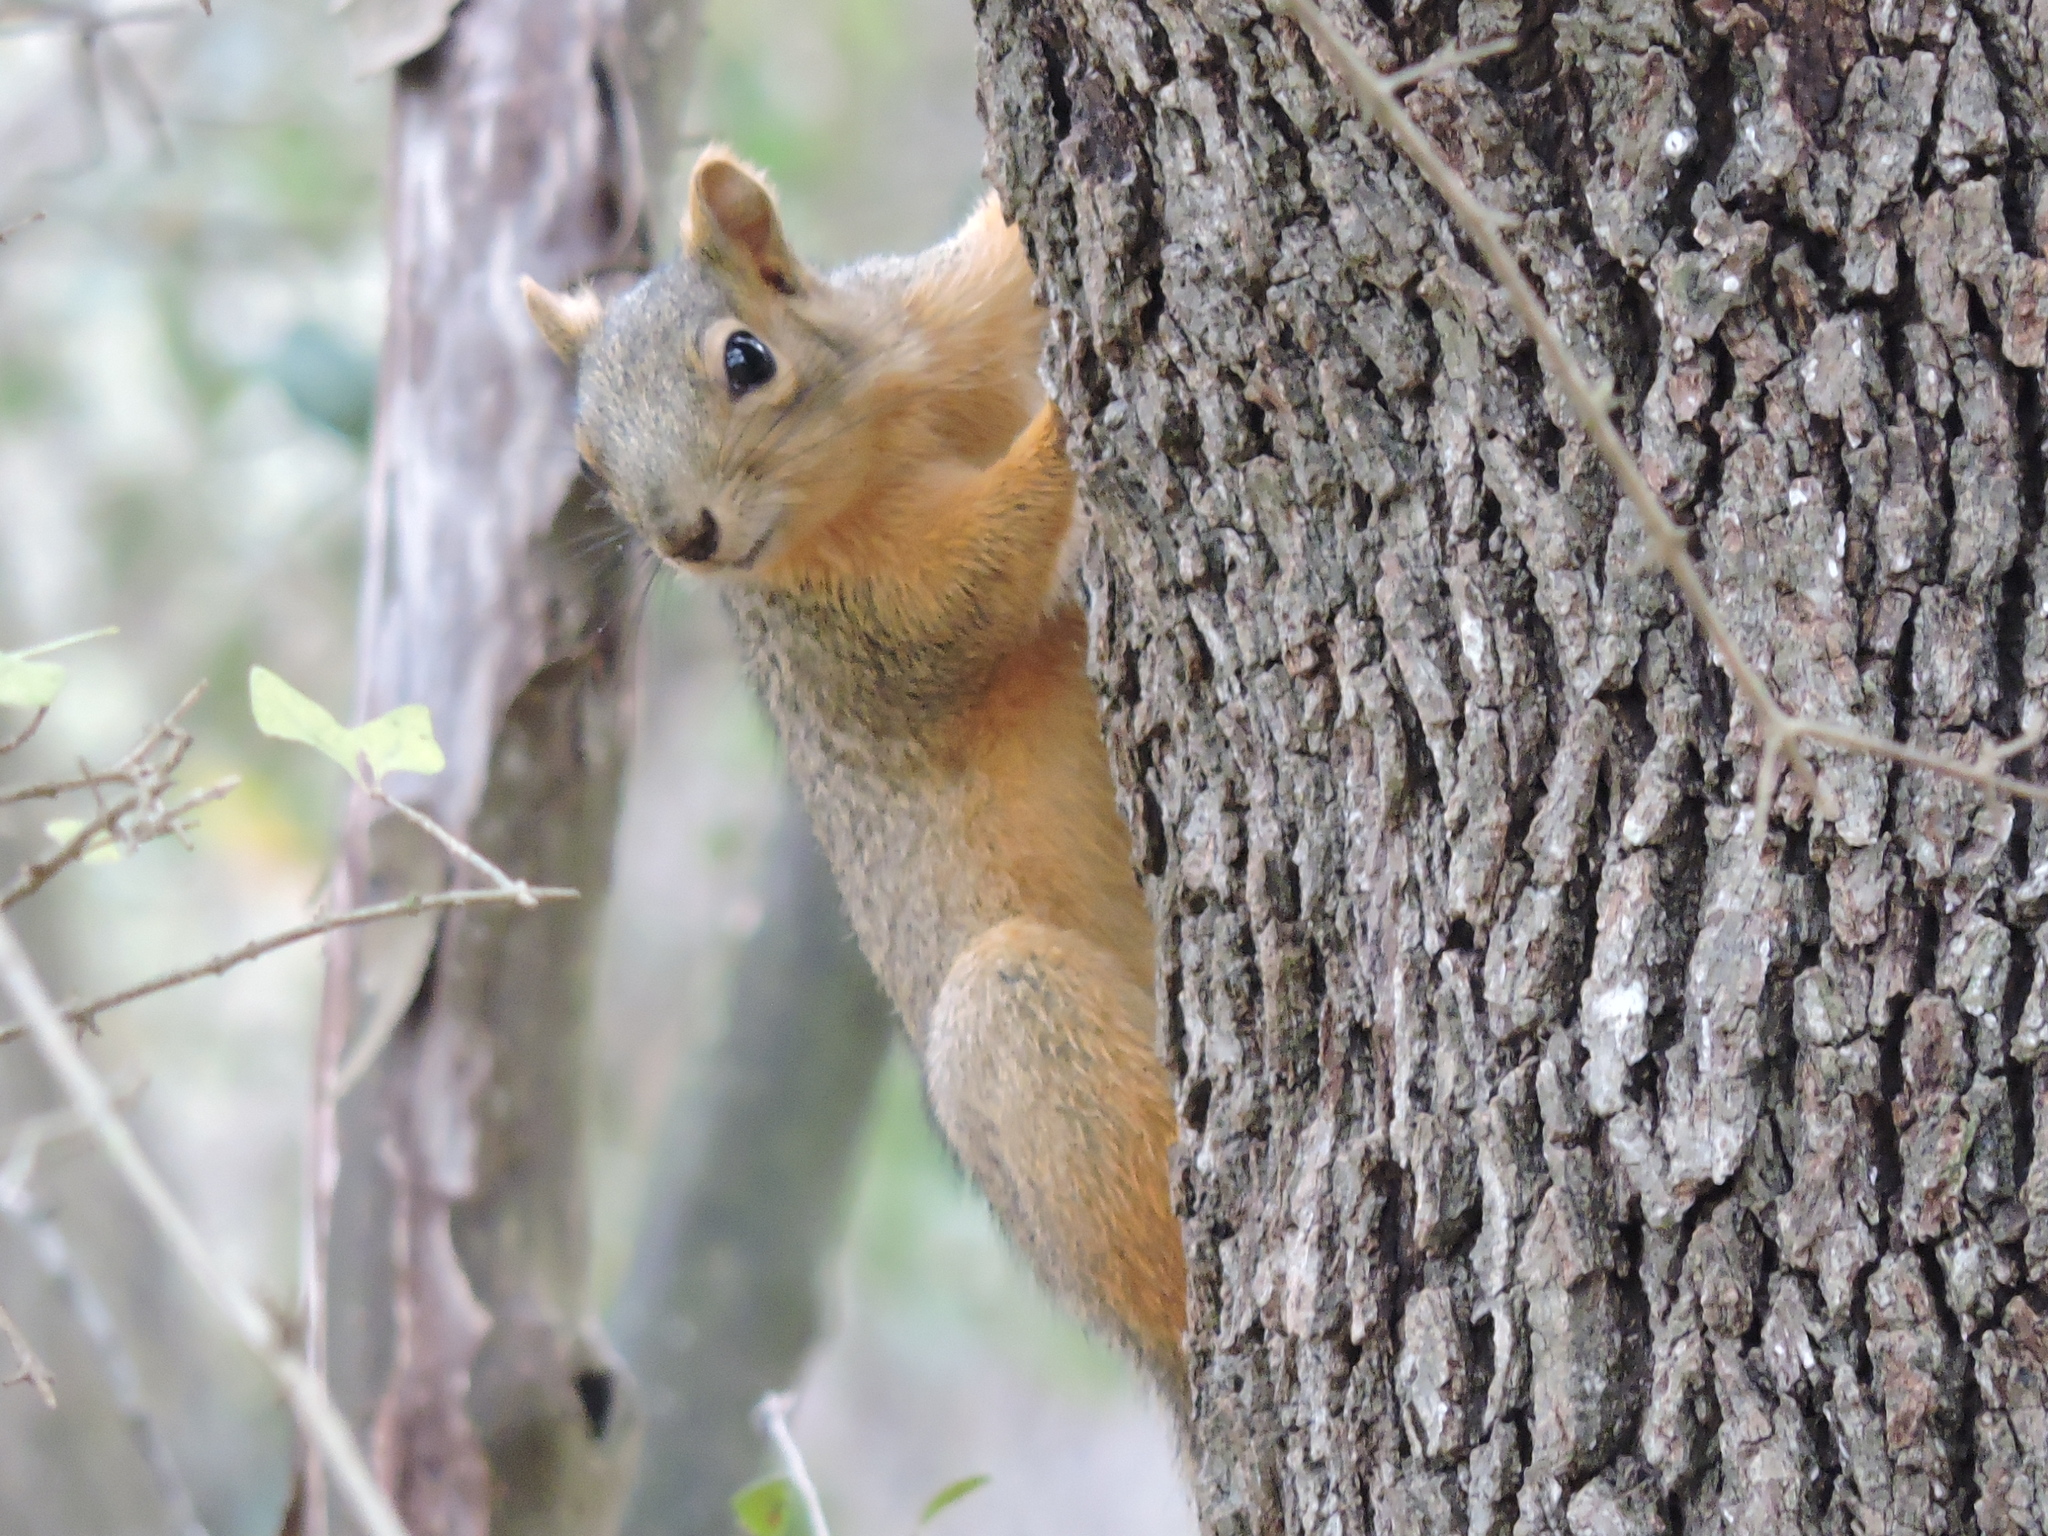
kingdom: Animalia
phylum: Chordata
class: Mammalia
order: Rodentia
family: Sciuridae
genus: Sciurus
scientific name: Sciurus niger
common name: Fox squirrel
